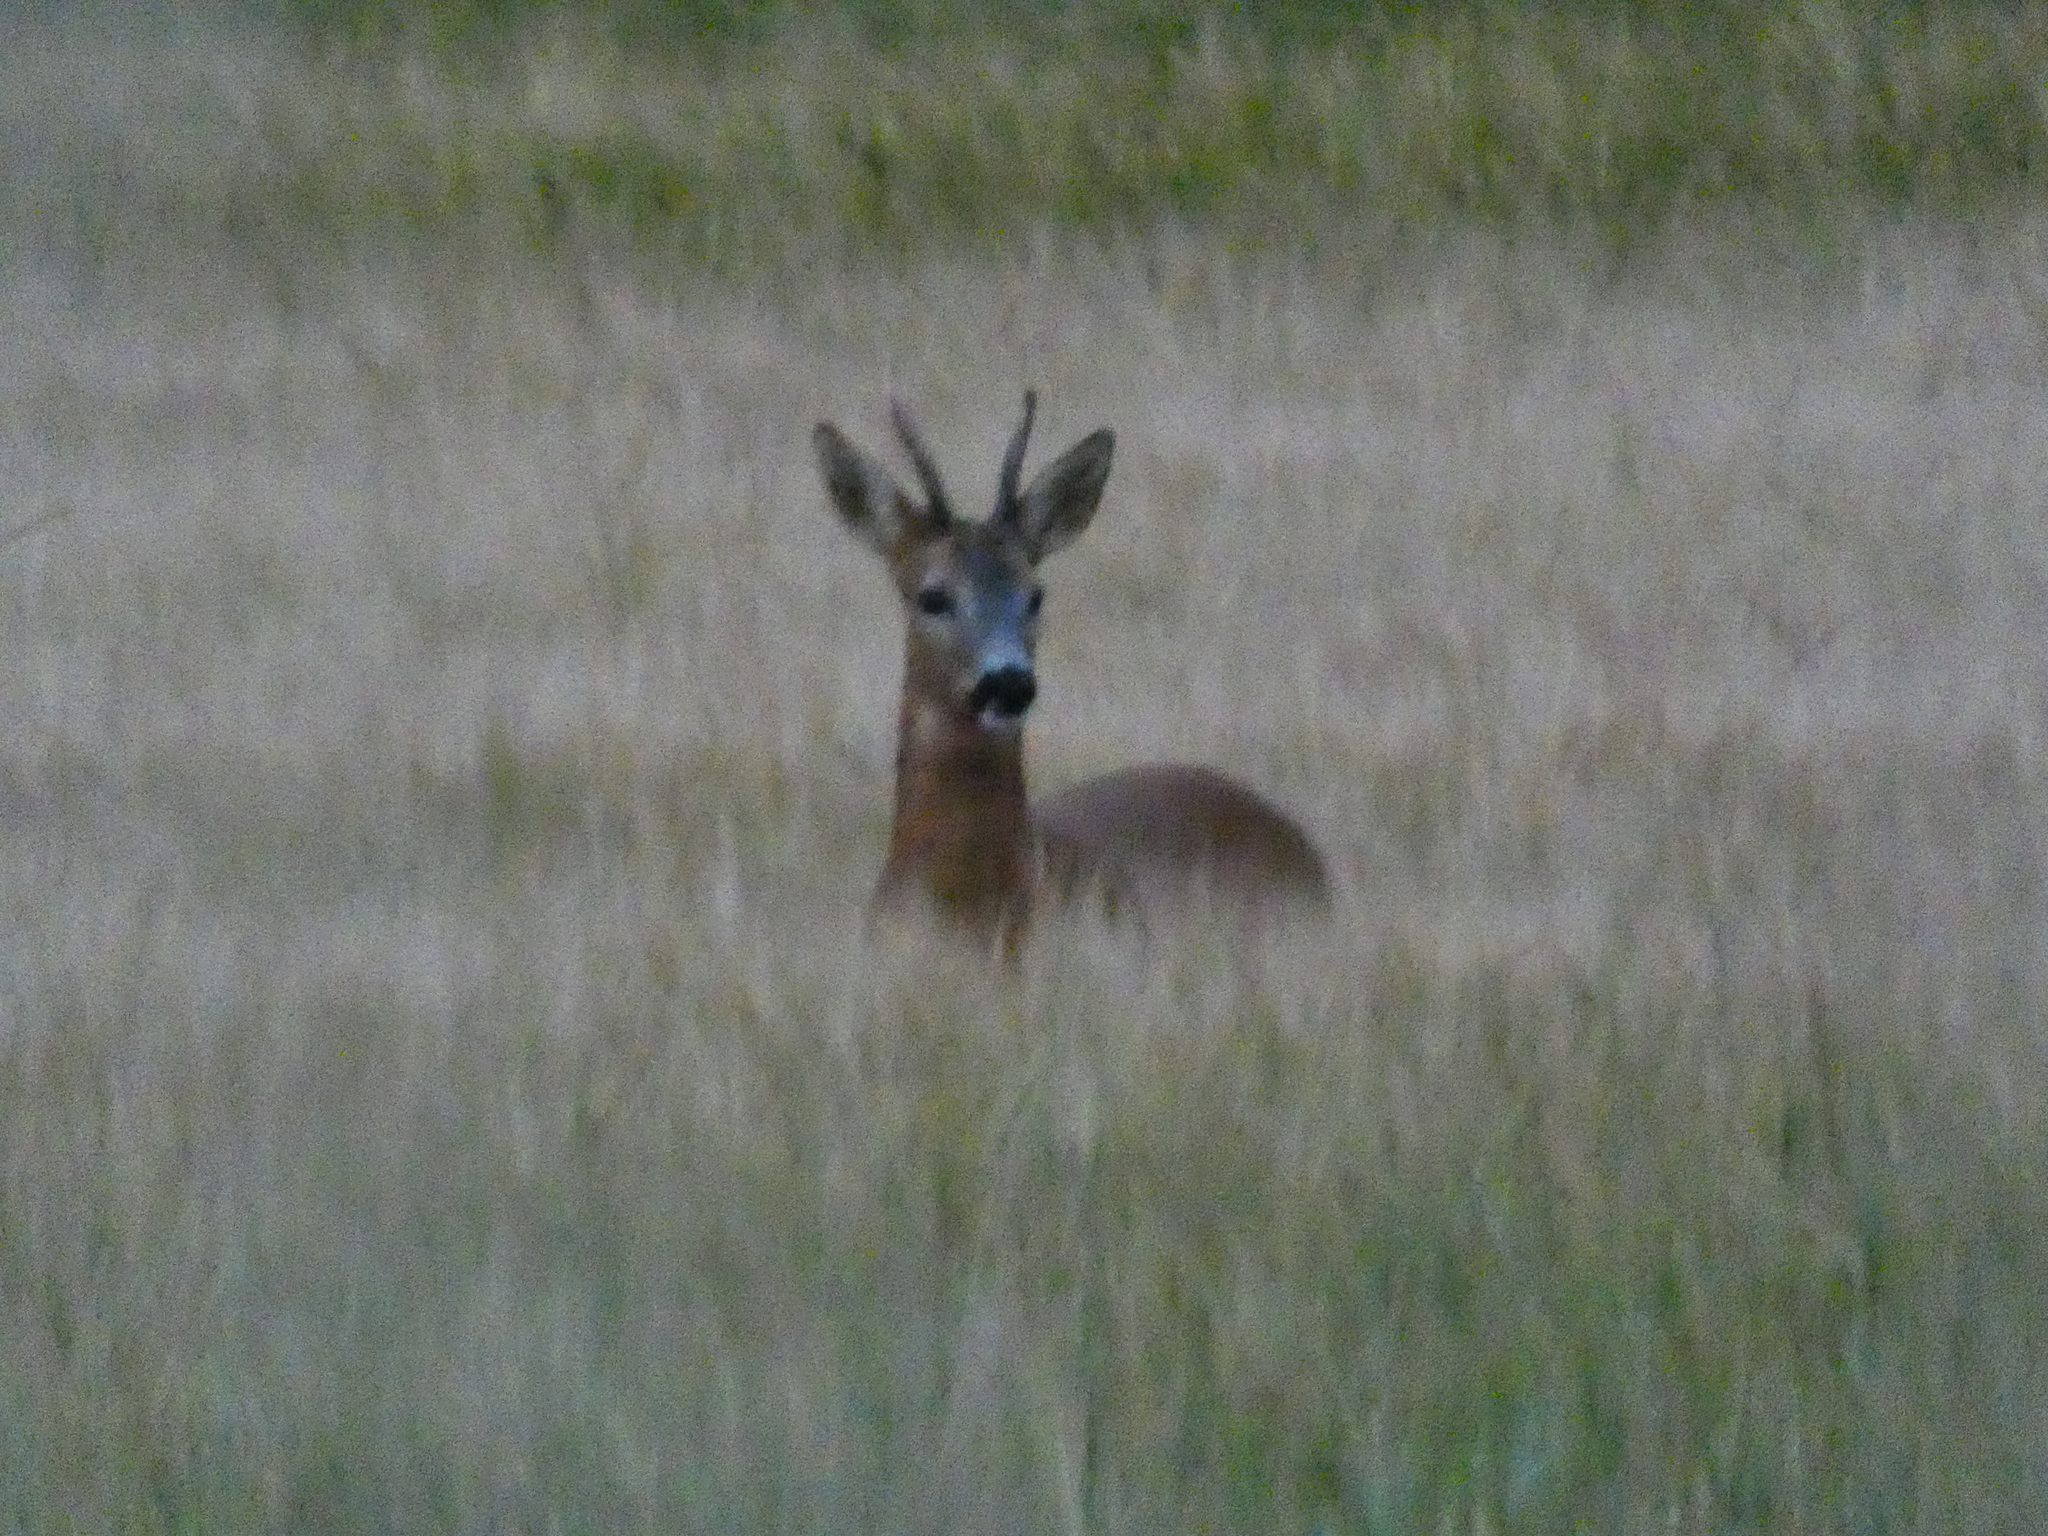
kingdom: Animalia
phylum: Chordata
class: Mammalia
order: Artiodactyla
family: Cervidae
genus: Capreolus
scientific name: Capreolus capreolus
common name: Western roe deer
